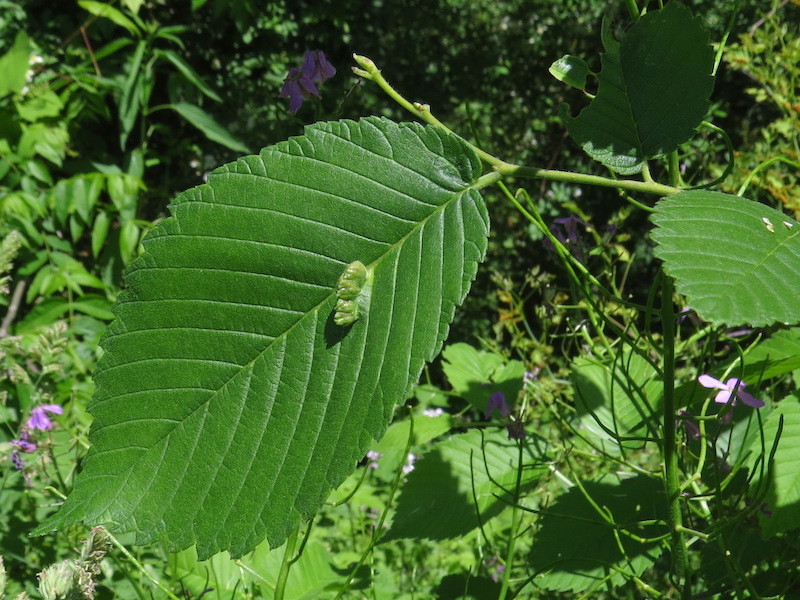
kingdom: Animalia
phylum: Arthropoda
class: Insecta
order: Hemiptera
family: Aphididae
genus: Colopha
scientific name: Colopha ulmicola
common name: Elm cockscombgall aphid
